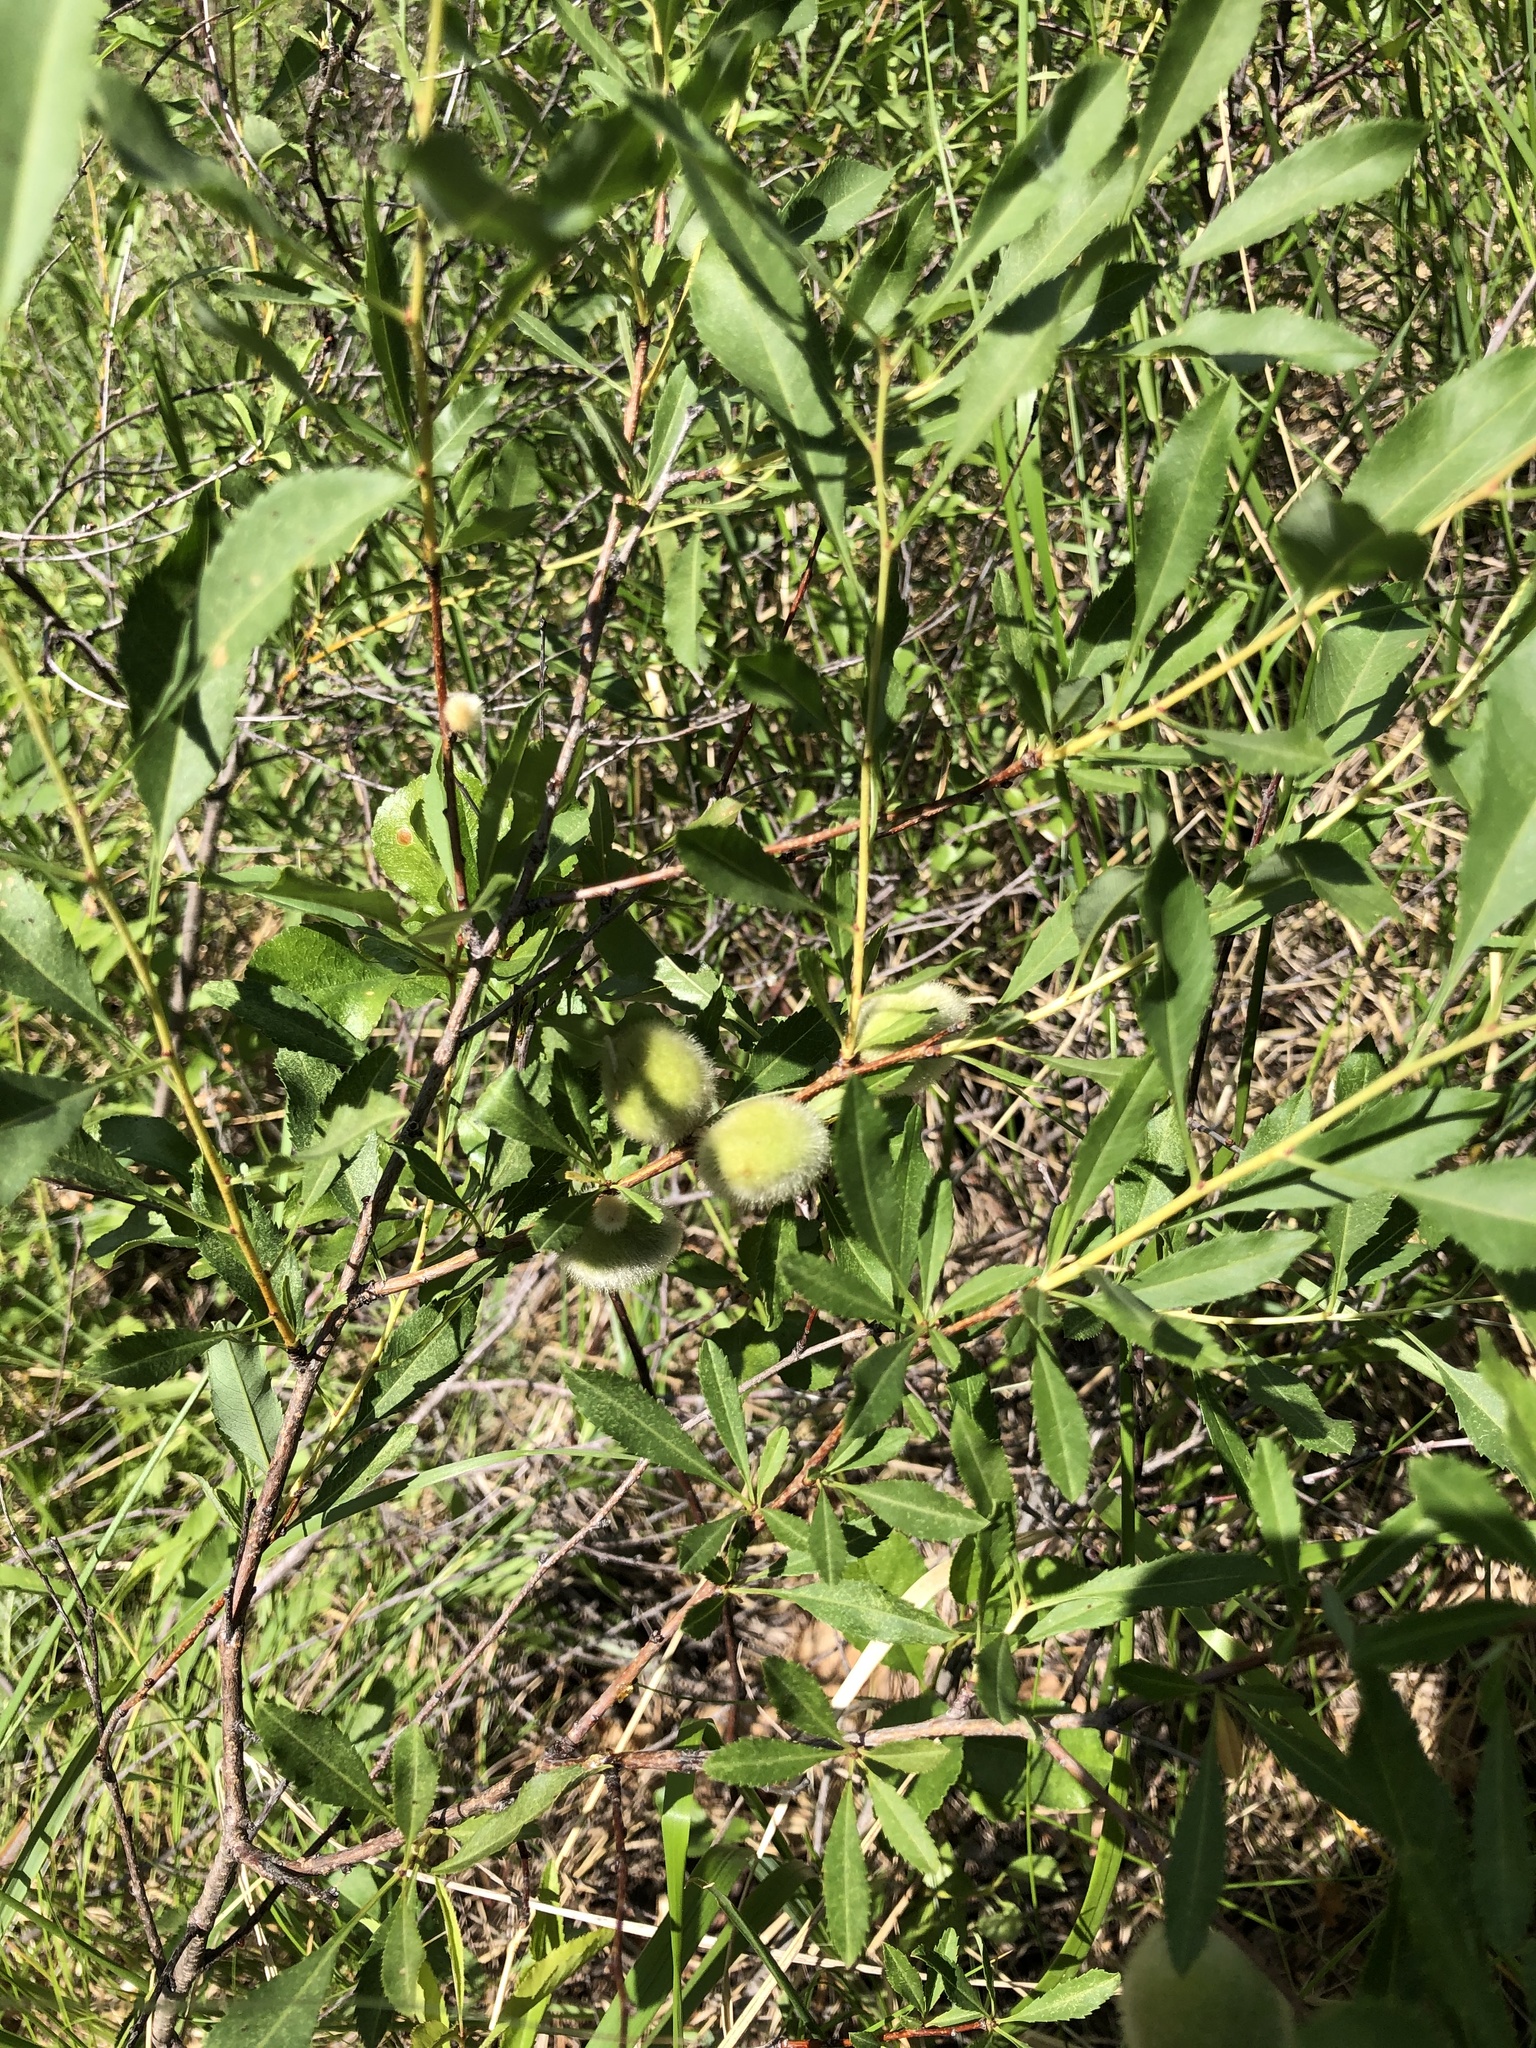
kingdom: Plantae
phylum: Tracheophyta
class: Magnoliopsida
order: Rosales
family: Rosaceae
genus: Prunus
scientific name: Prunus tenella
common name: Dwarf russian almond
